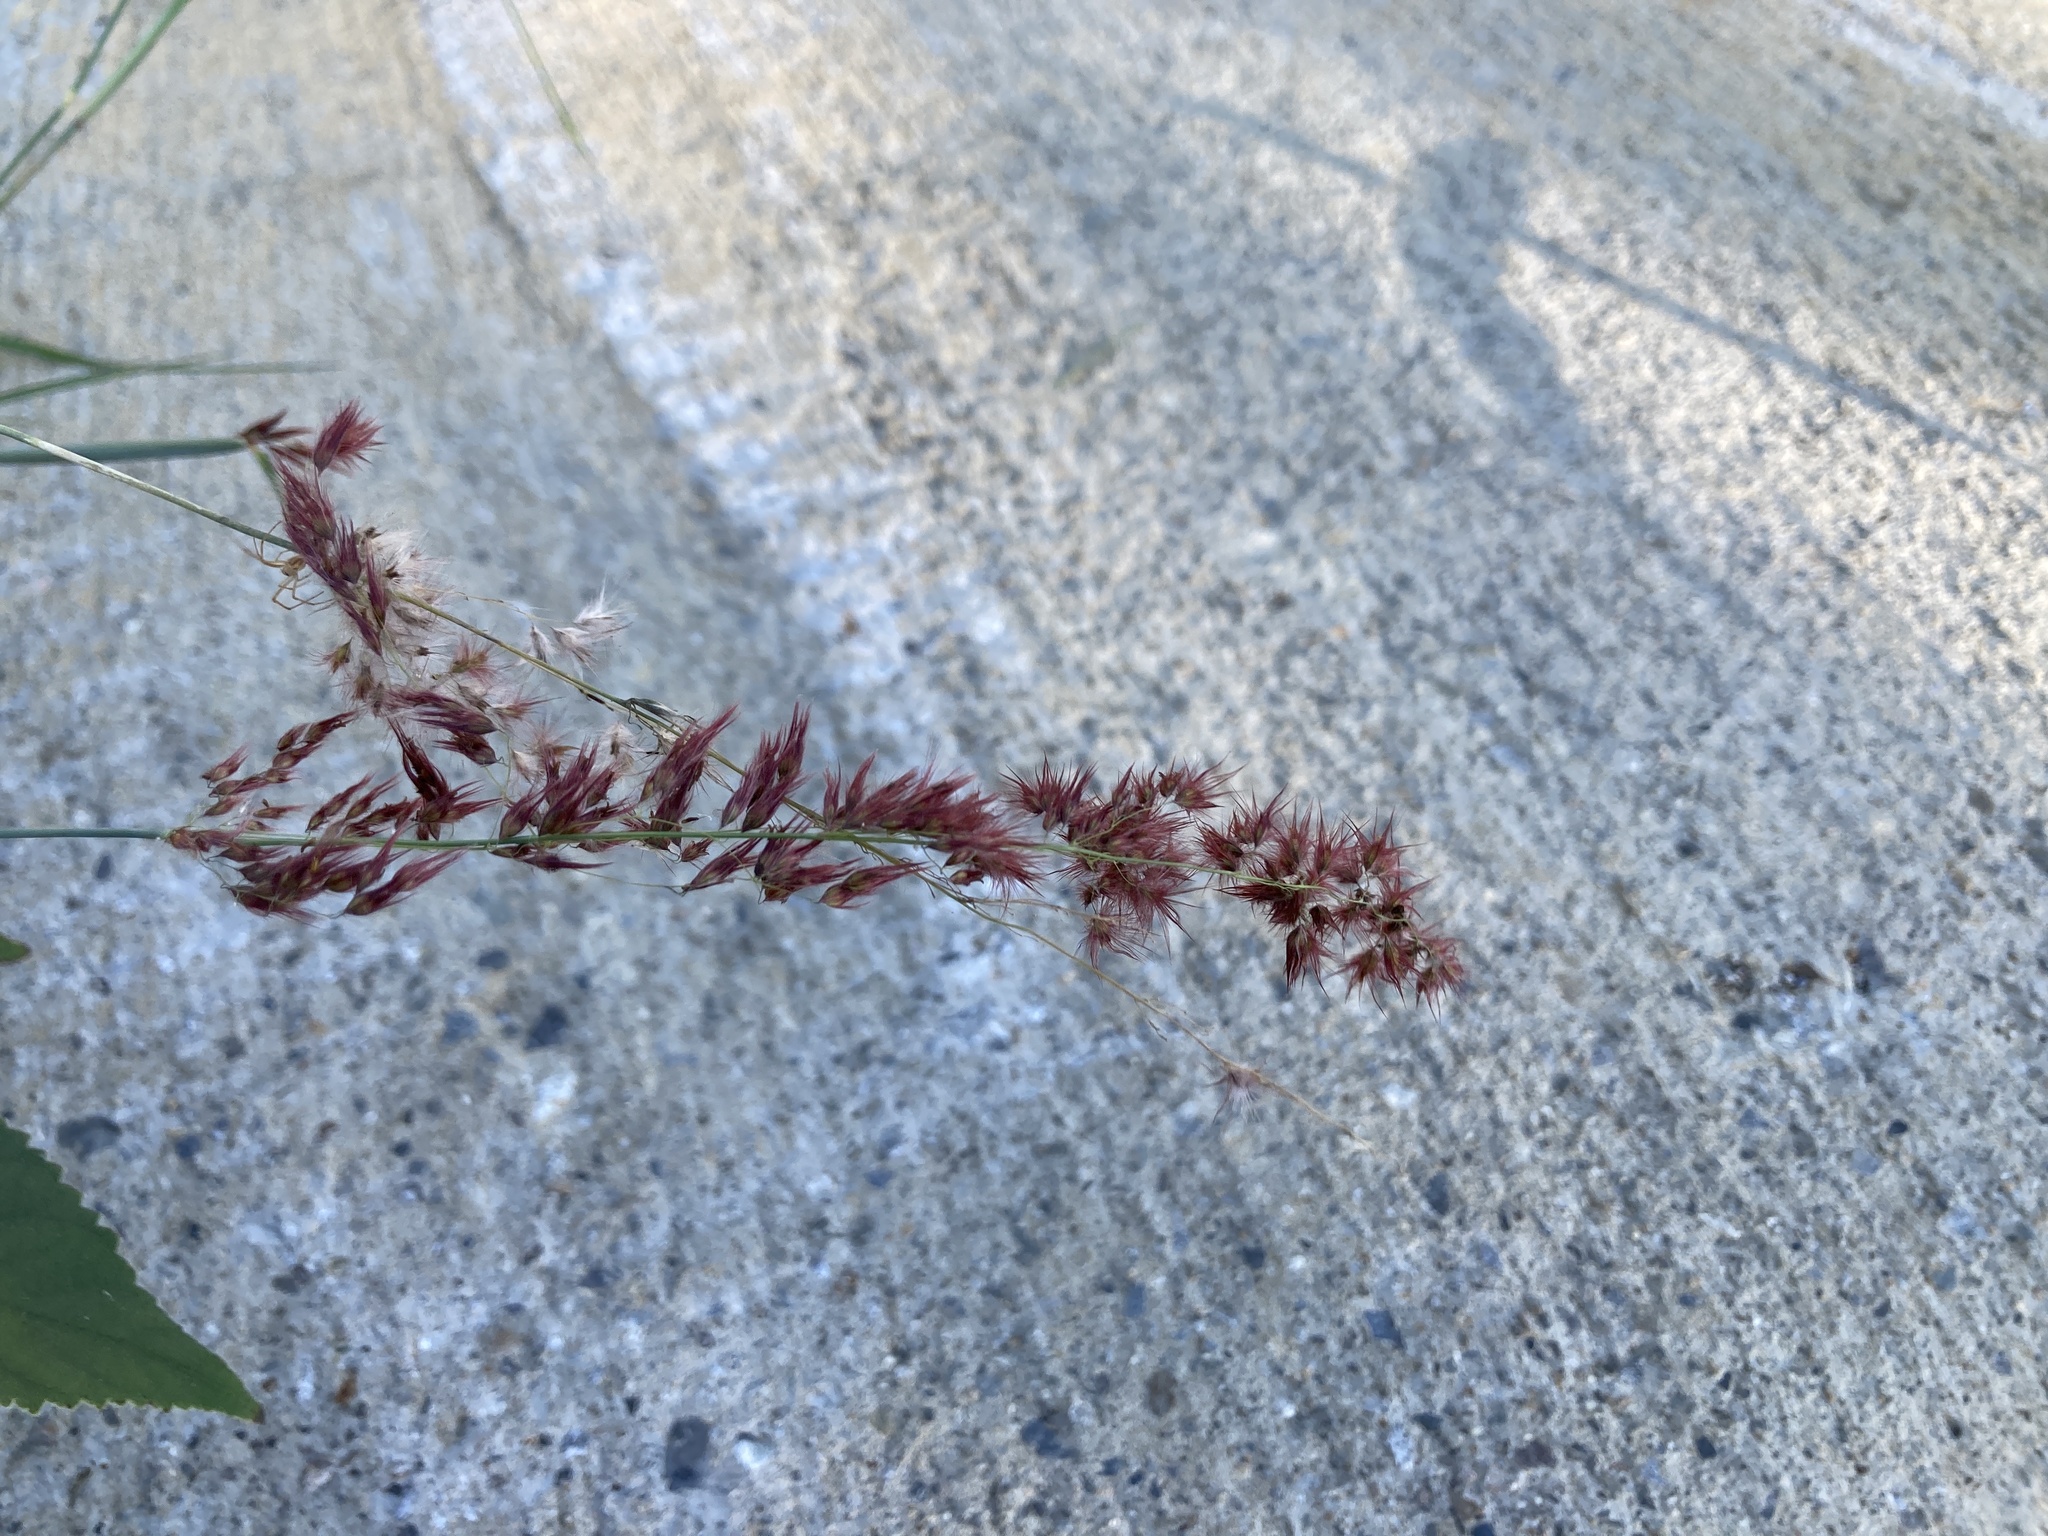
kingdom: Plantae
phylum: Tracheophyta
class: Liliopsida
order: Poales
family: Poaceae
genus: Melinis
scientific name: Melinis repens
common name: Rose natal grass
